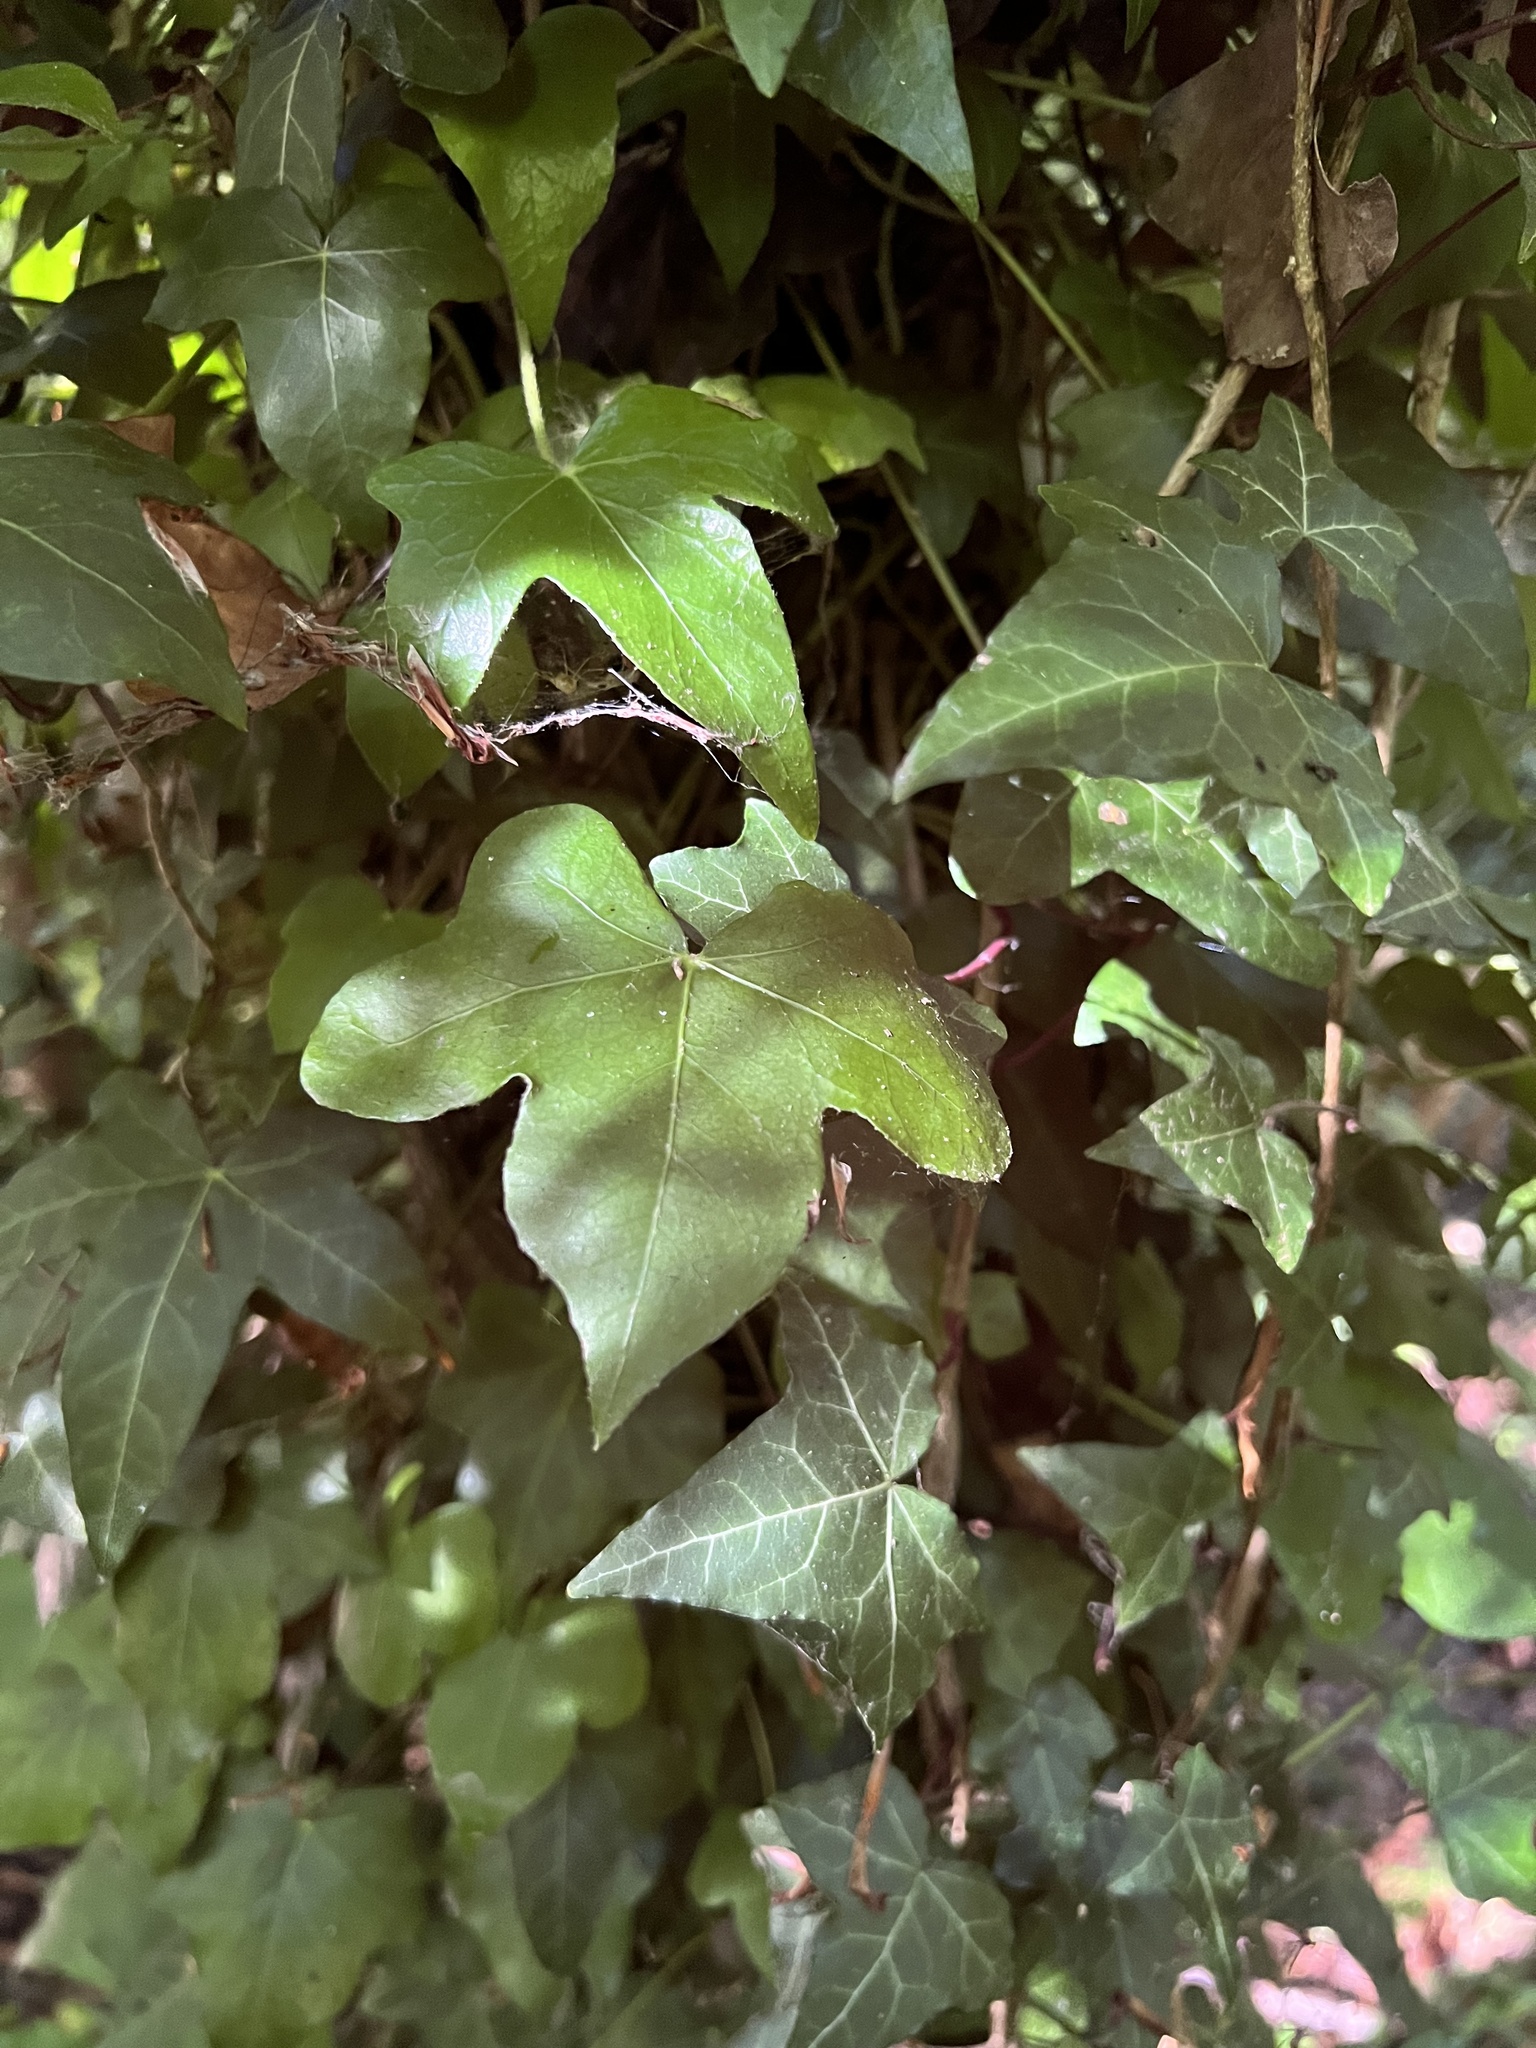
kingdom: Plantae
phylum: Tracheophyta
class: Magnoliopsida
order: Apiales
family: Araliaceae
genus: Hedera
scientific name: Hedera helix
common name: Ivy
